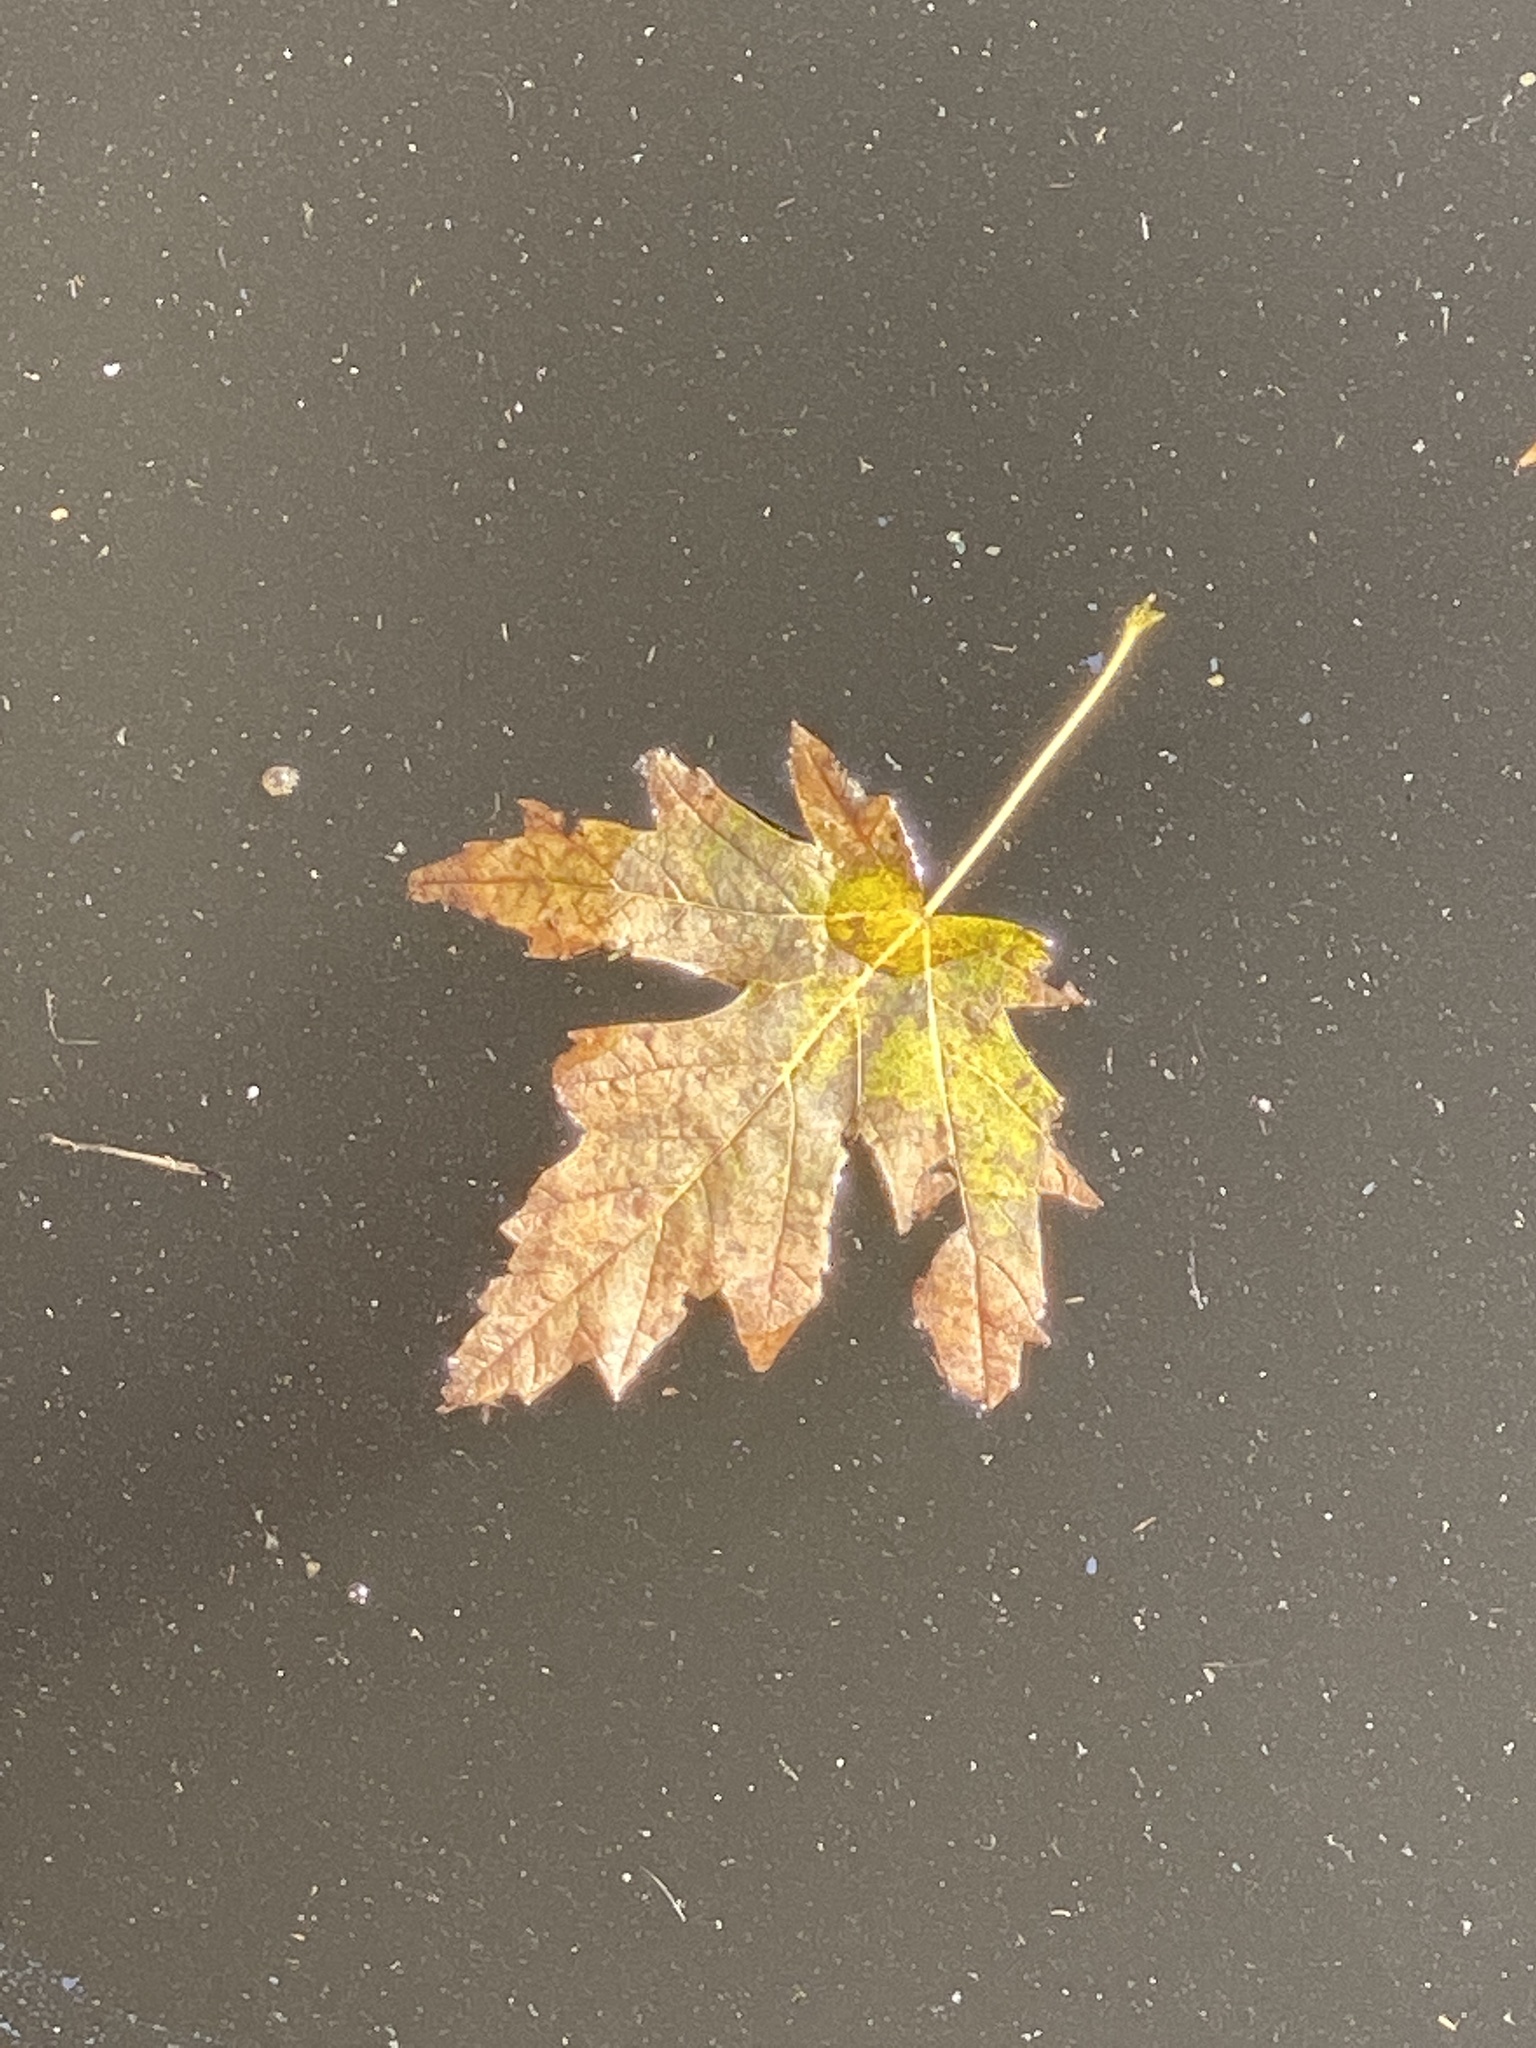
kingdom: Plantae
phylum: Tracheophyta
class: Magnoliopsida
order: Sapindales
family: Sapindaceae
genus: Acer
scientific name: Acer saccharinum
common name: Silver maple
